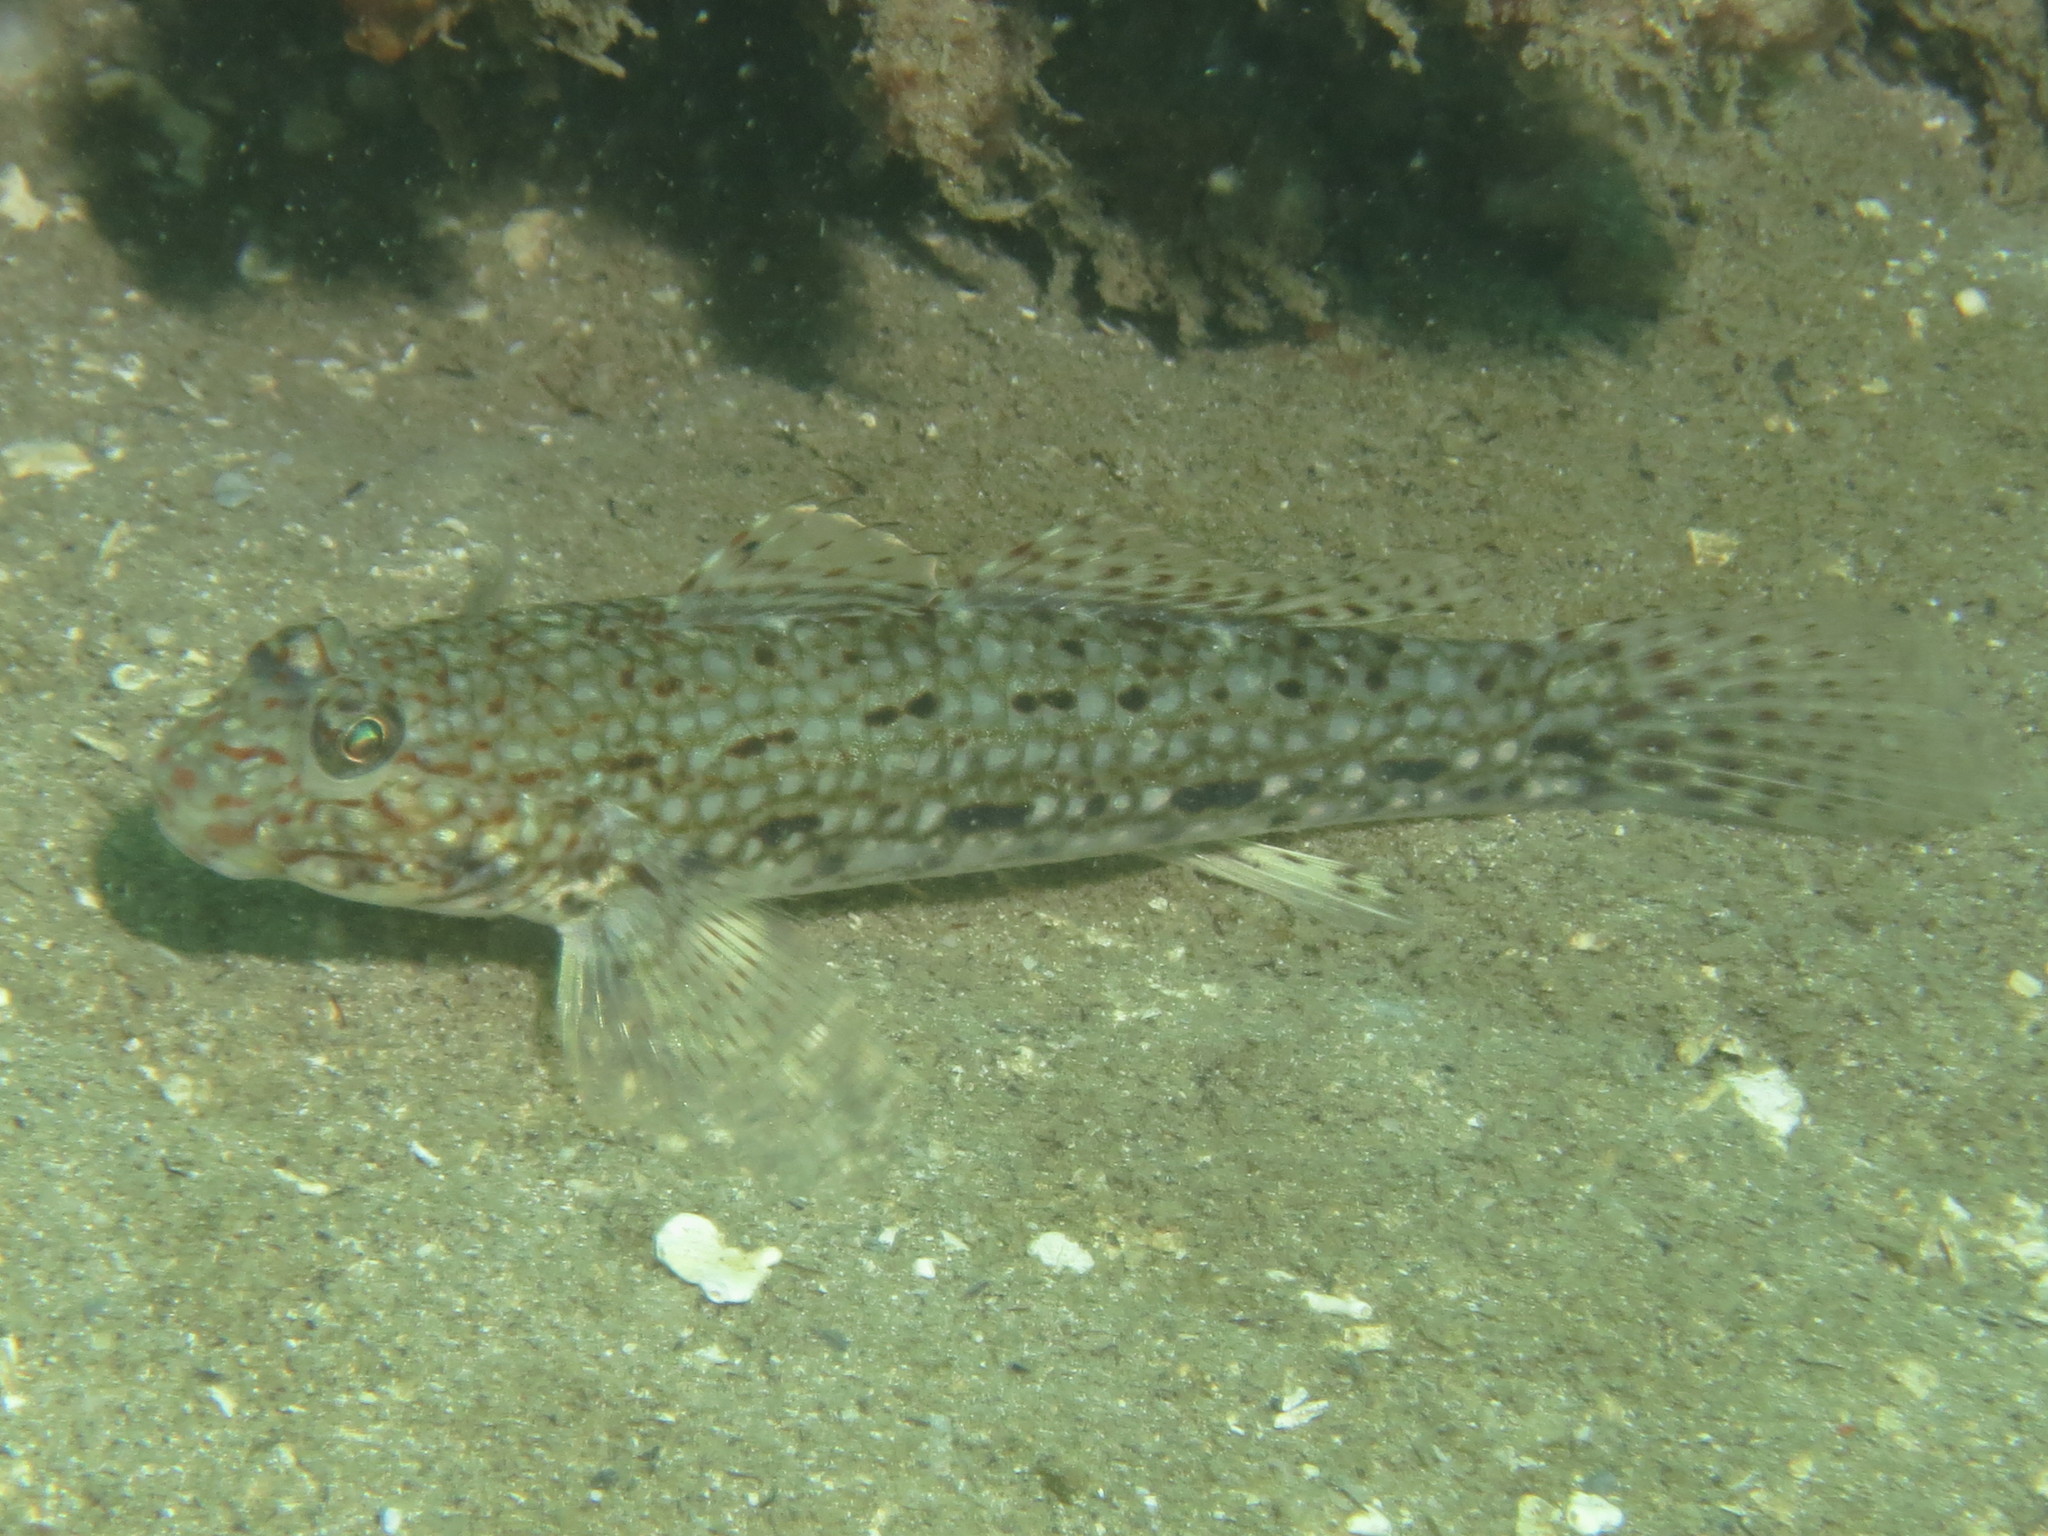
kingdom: Animalia
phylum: Chordata
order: Perciformes
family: Gobiidae
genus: Istigobius
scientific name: Istigobius decoratus
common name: Decorated goby
